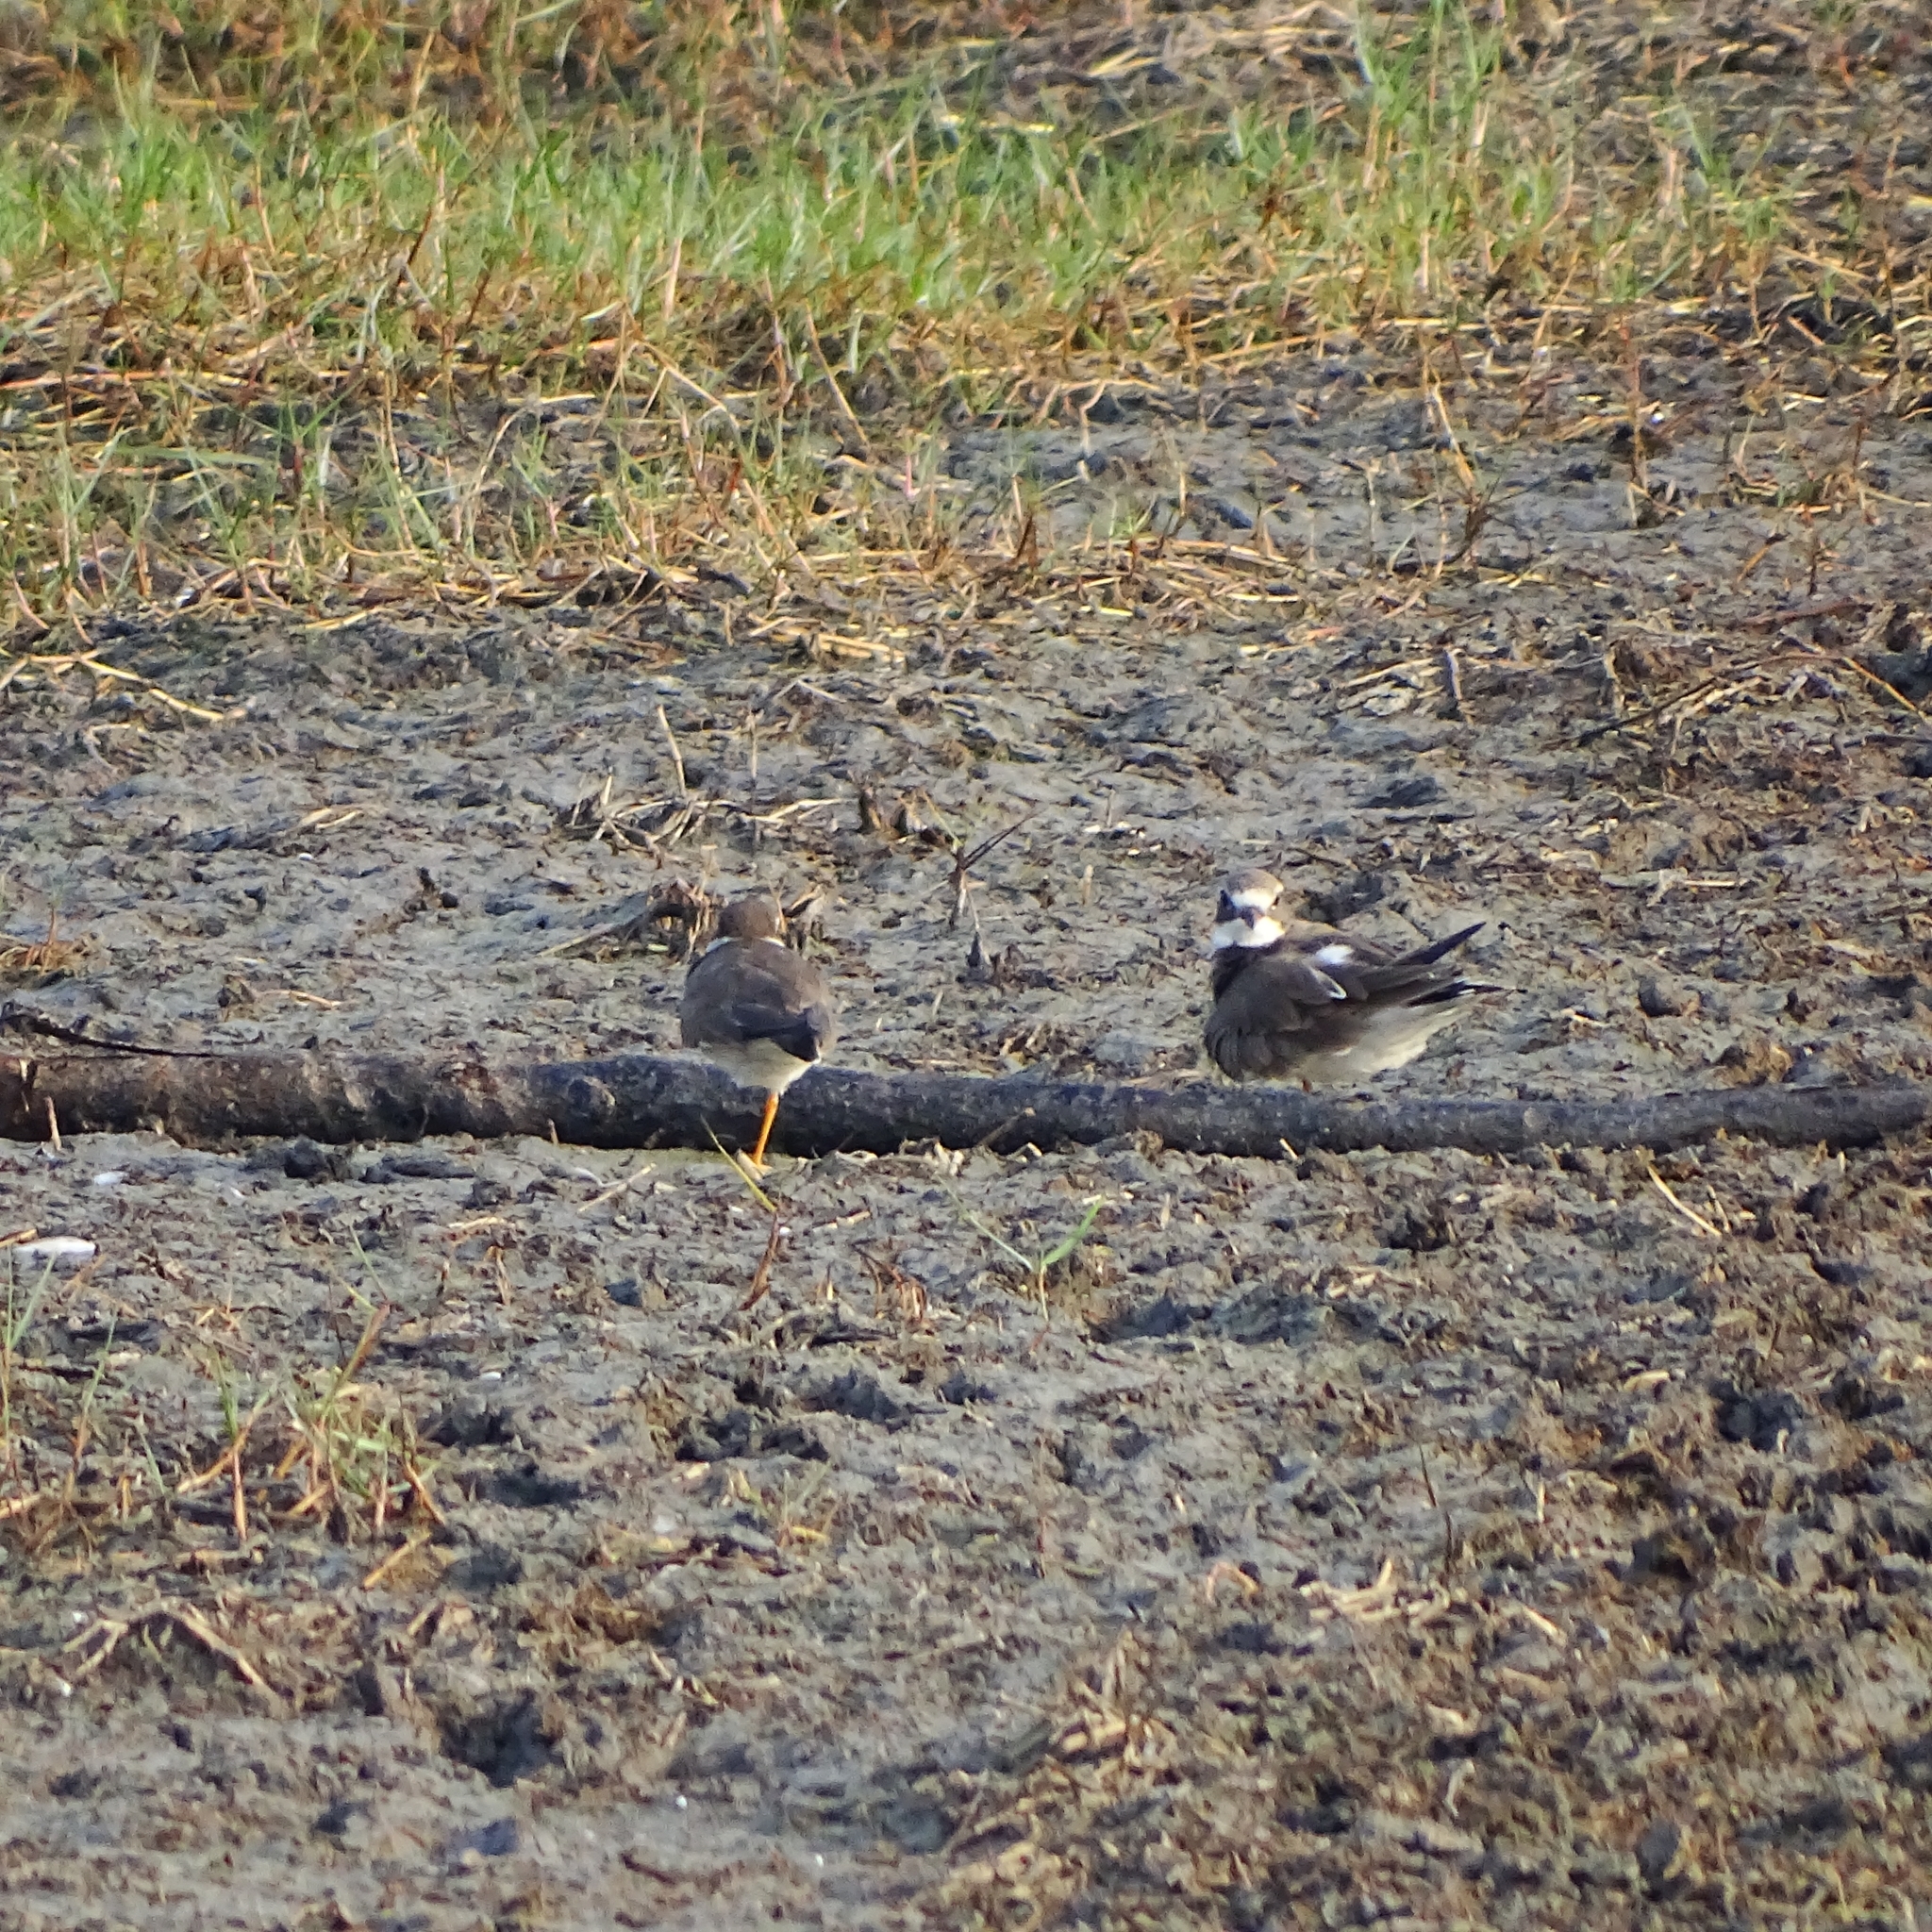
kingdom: Animalia
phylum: Chordata
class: Aves
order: Charadriiformes
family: Charadriidae
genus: Charadrius
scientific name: Charadrius hiaticula
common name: Common ringed plover
